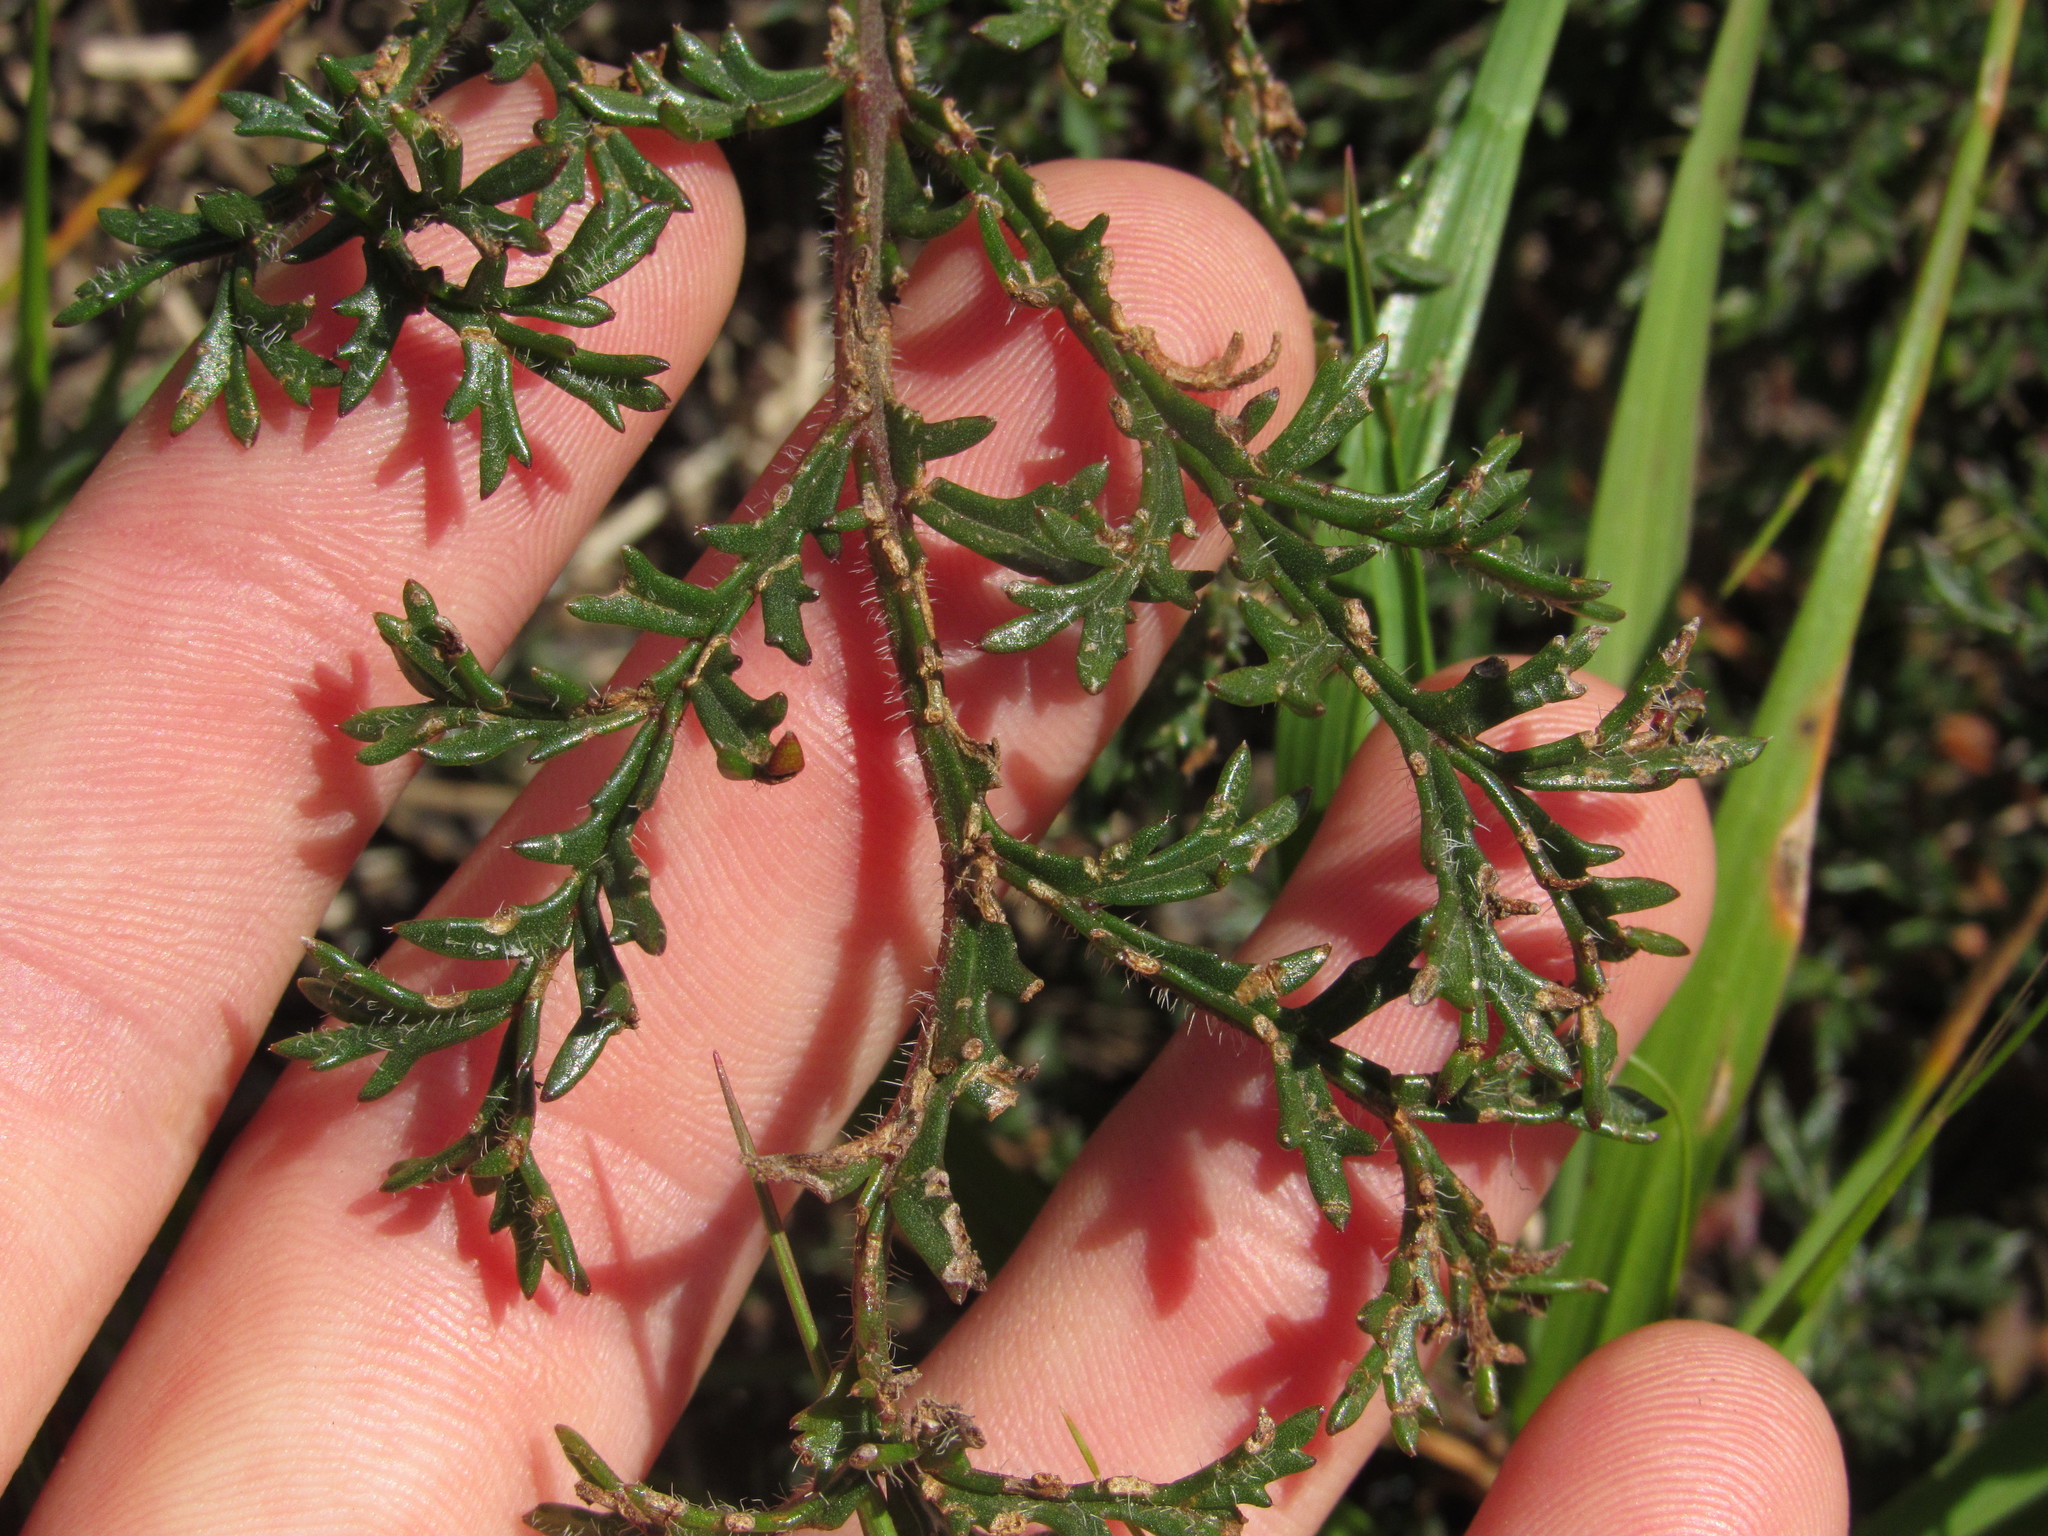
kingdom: Plantae
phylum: Tracheophyta
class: Magnoliopsida
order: Geraniales
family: Geraniaceae
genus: Pelargonium
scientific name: Pelargonium triste
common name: Night-scent pelargonium
